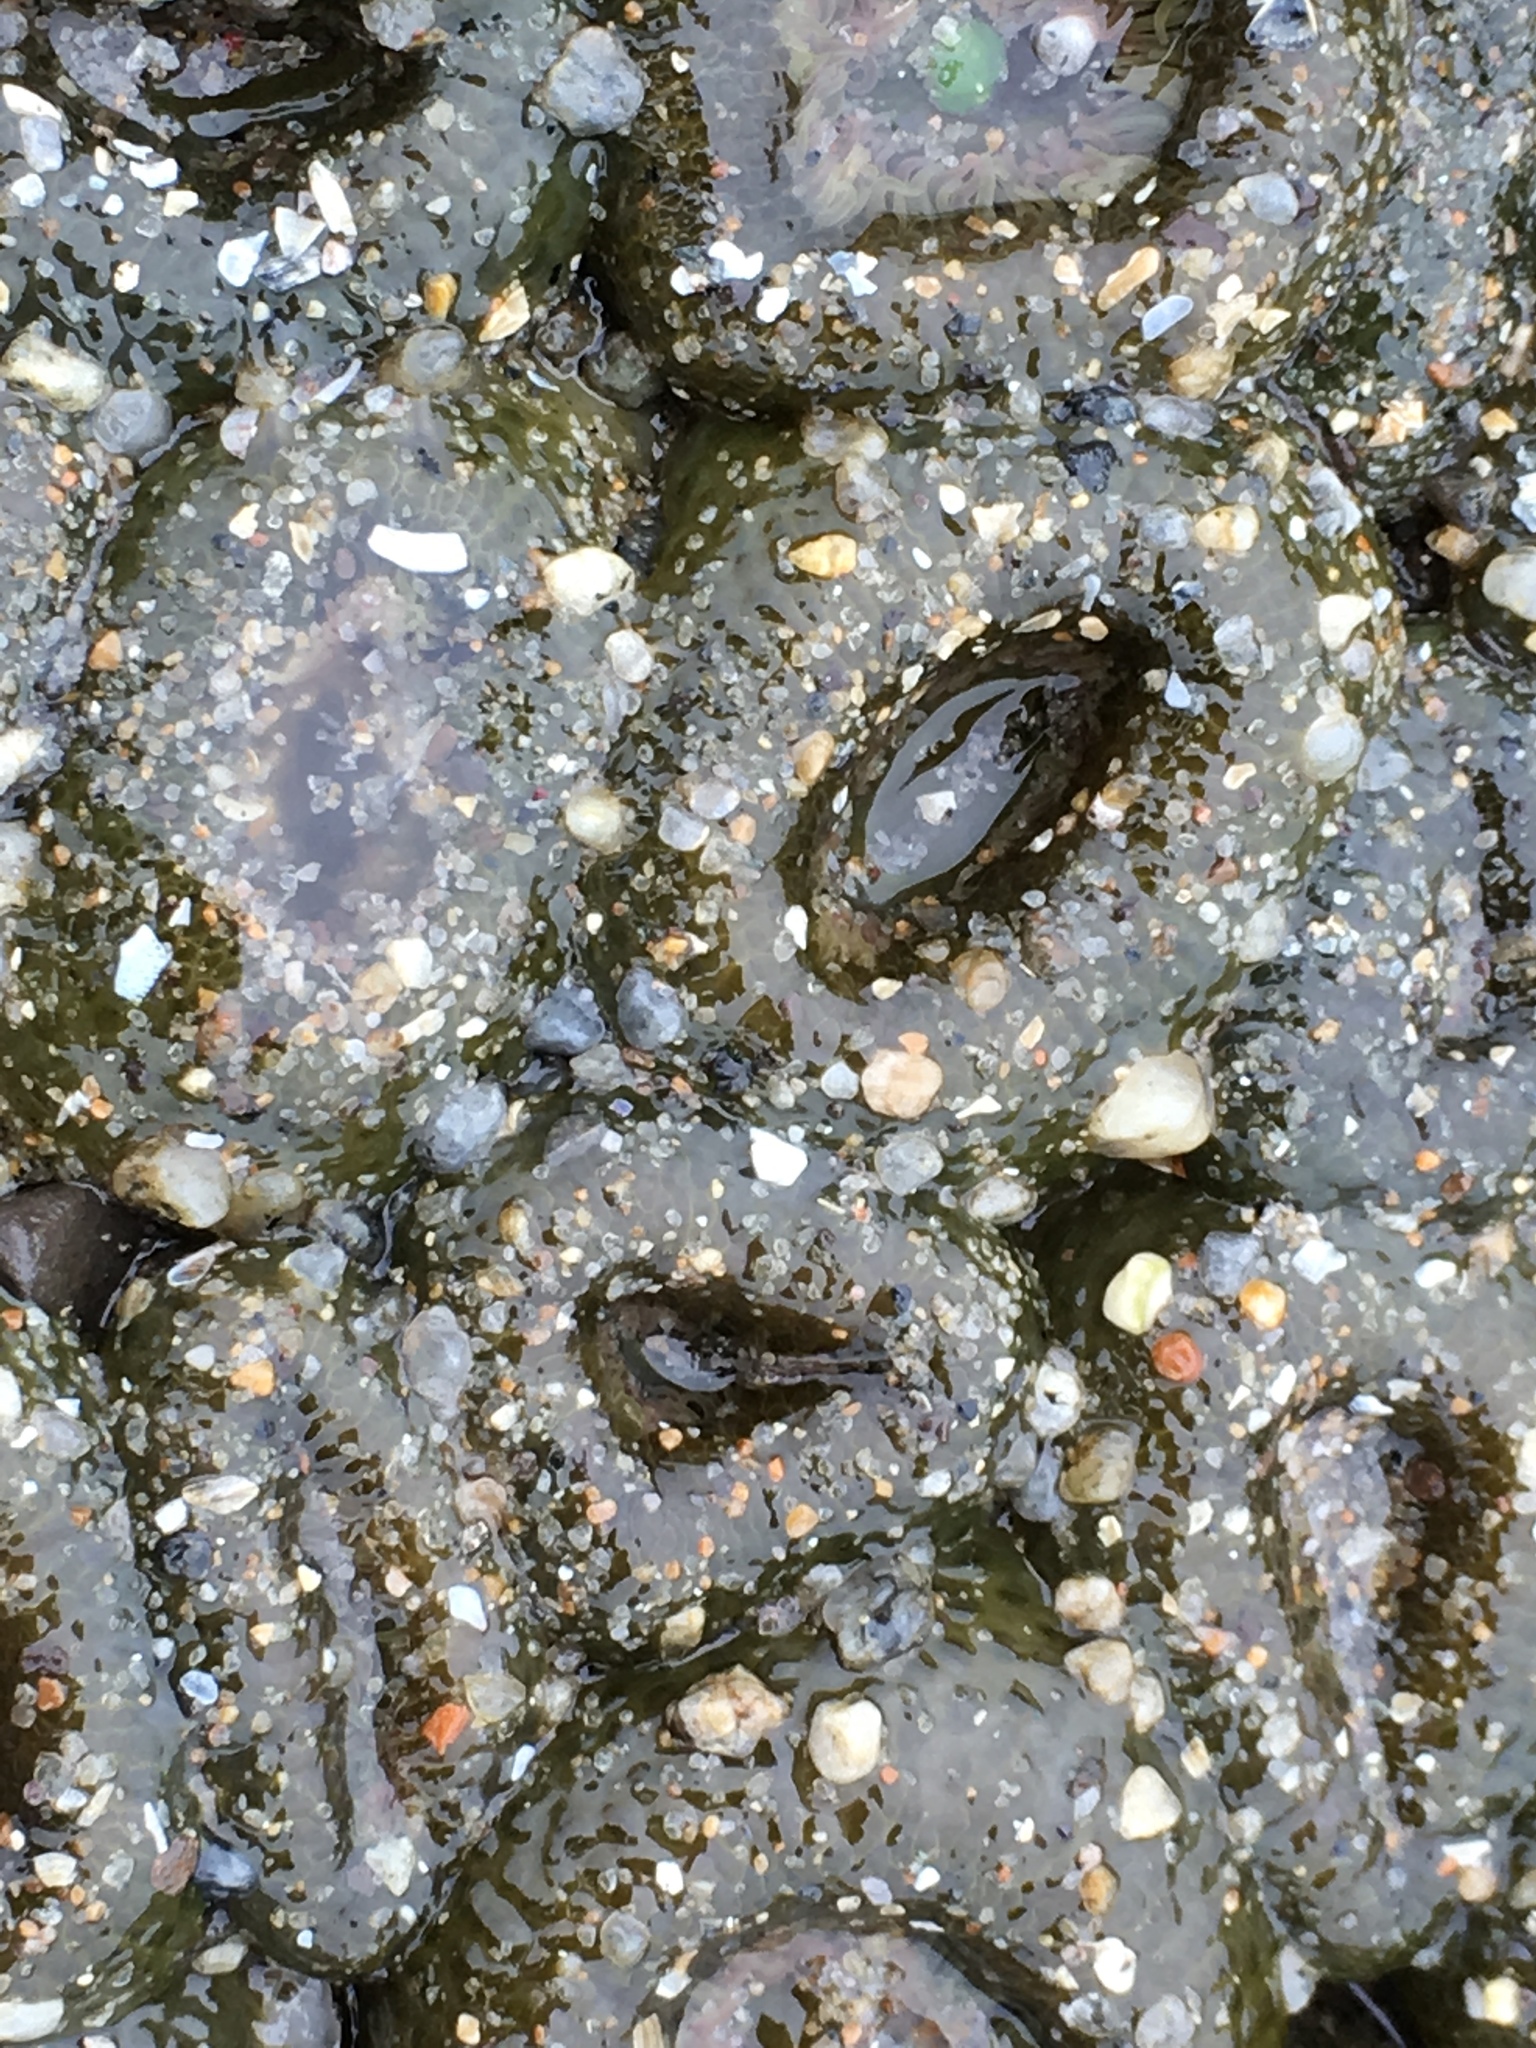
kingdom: Animalia
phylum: Cnidaria
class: Anthozoa
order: Actiniaria
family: Actiniidae
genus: Anthopleura
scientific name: Anthopleura elegantissima
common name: Clonal anemone
